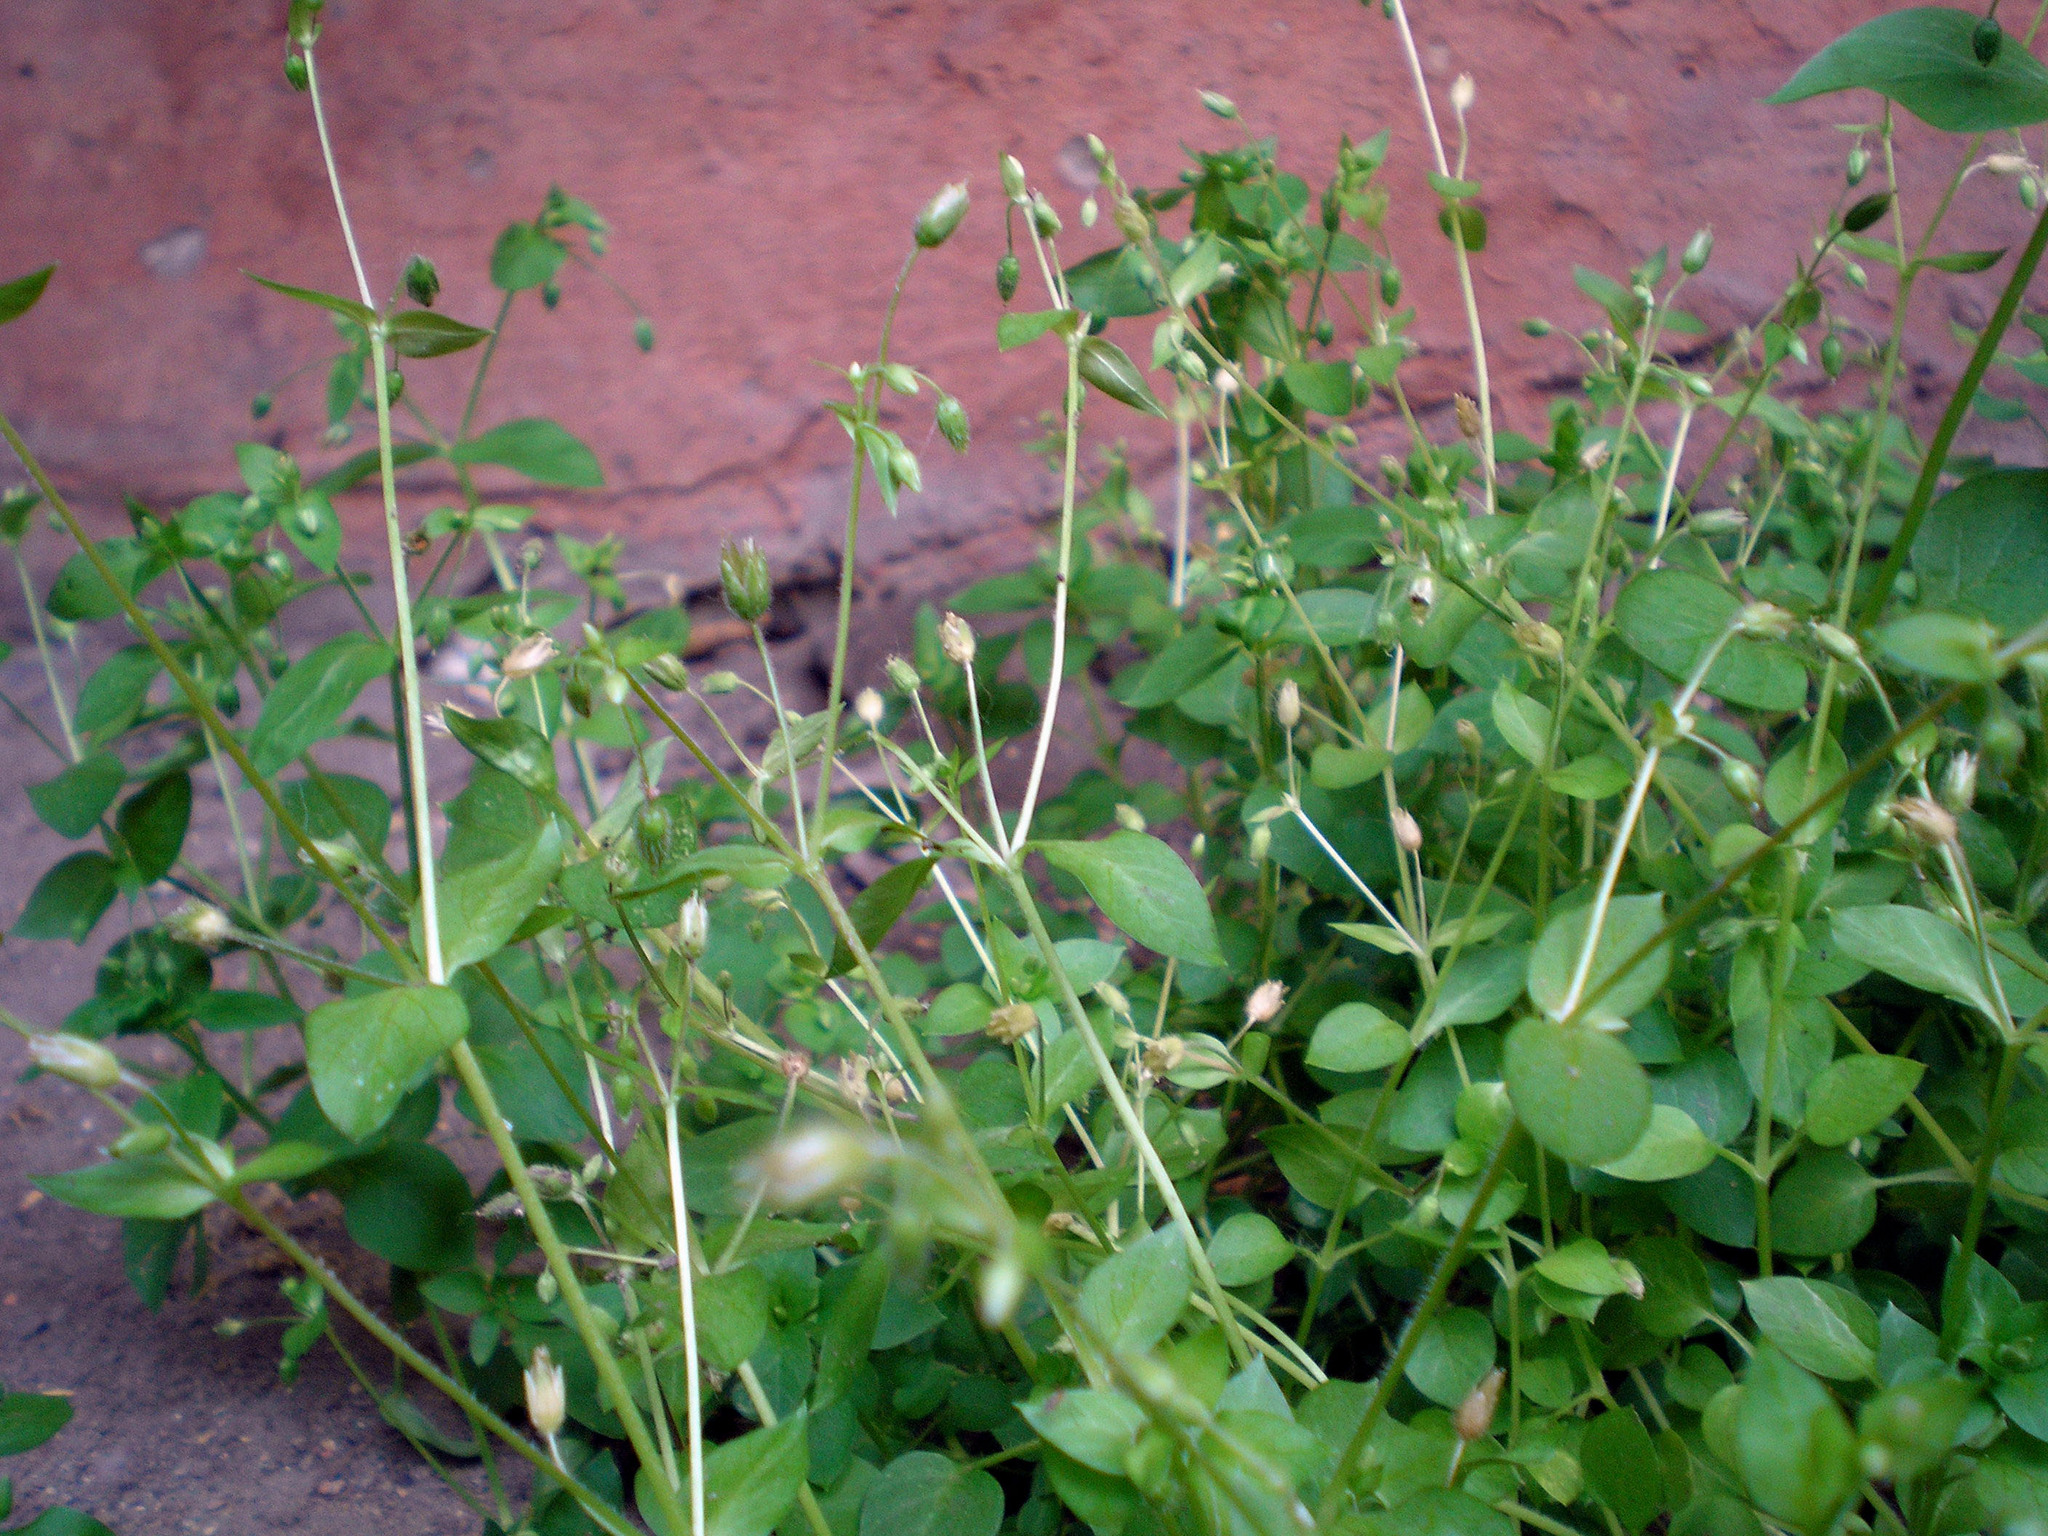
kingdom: Plantae
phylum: Tracheophyta
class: Magnoliopsida
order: Caryophyllales
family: Caryophyllaceae
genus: Stellaria
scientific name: Stellaria media
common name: Common chickweed
